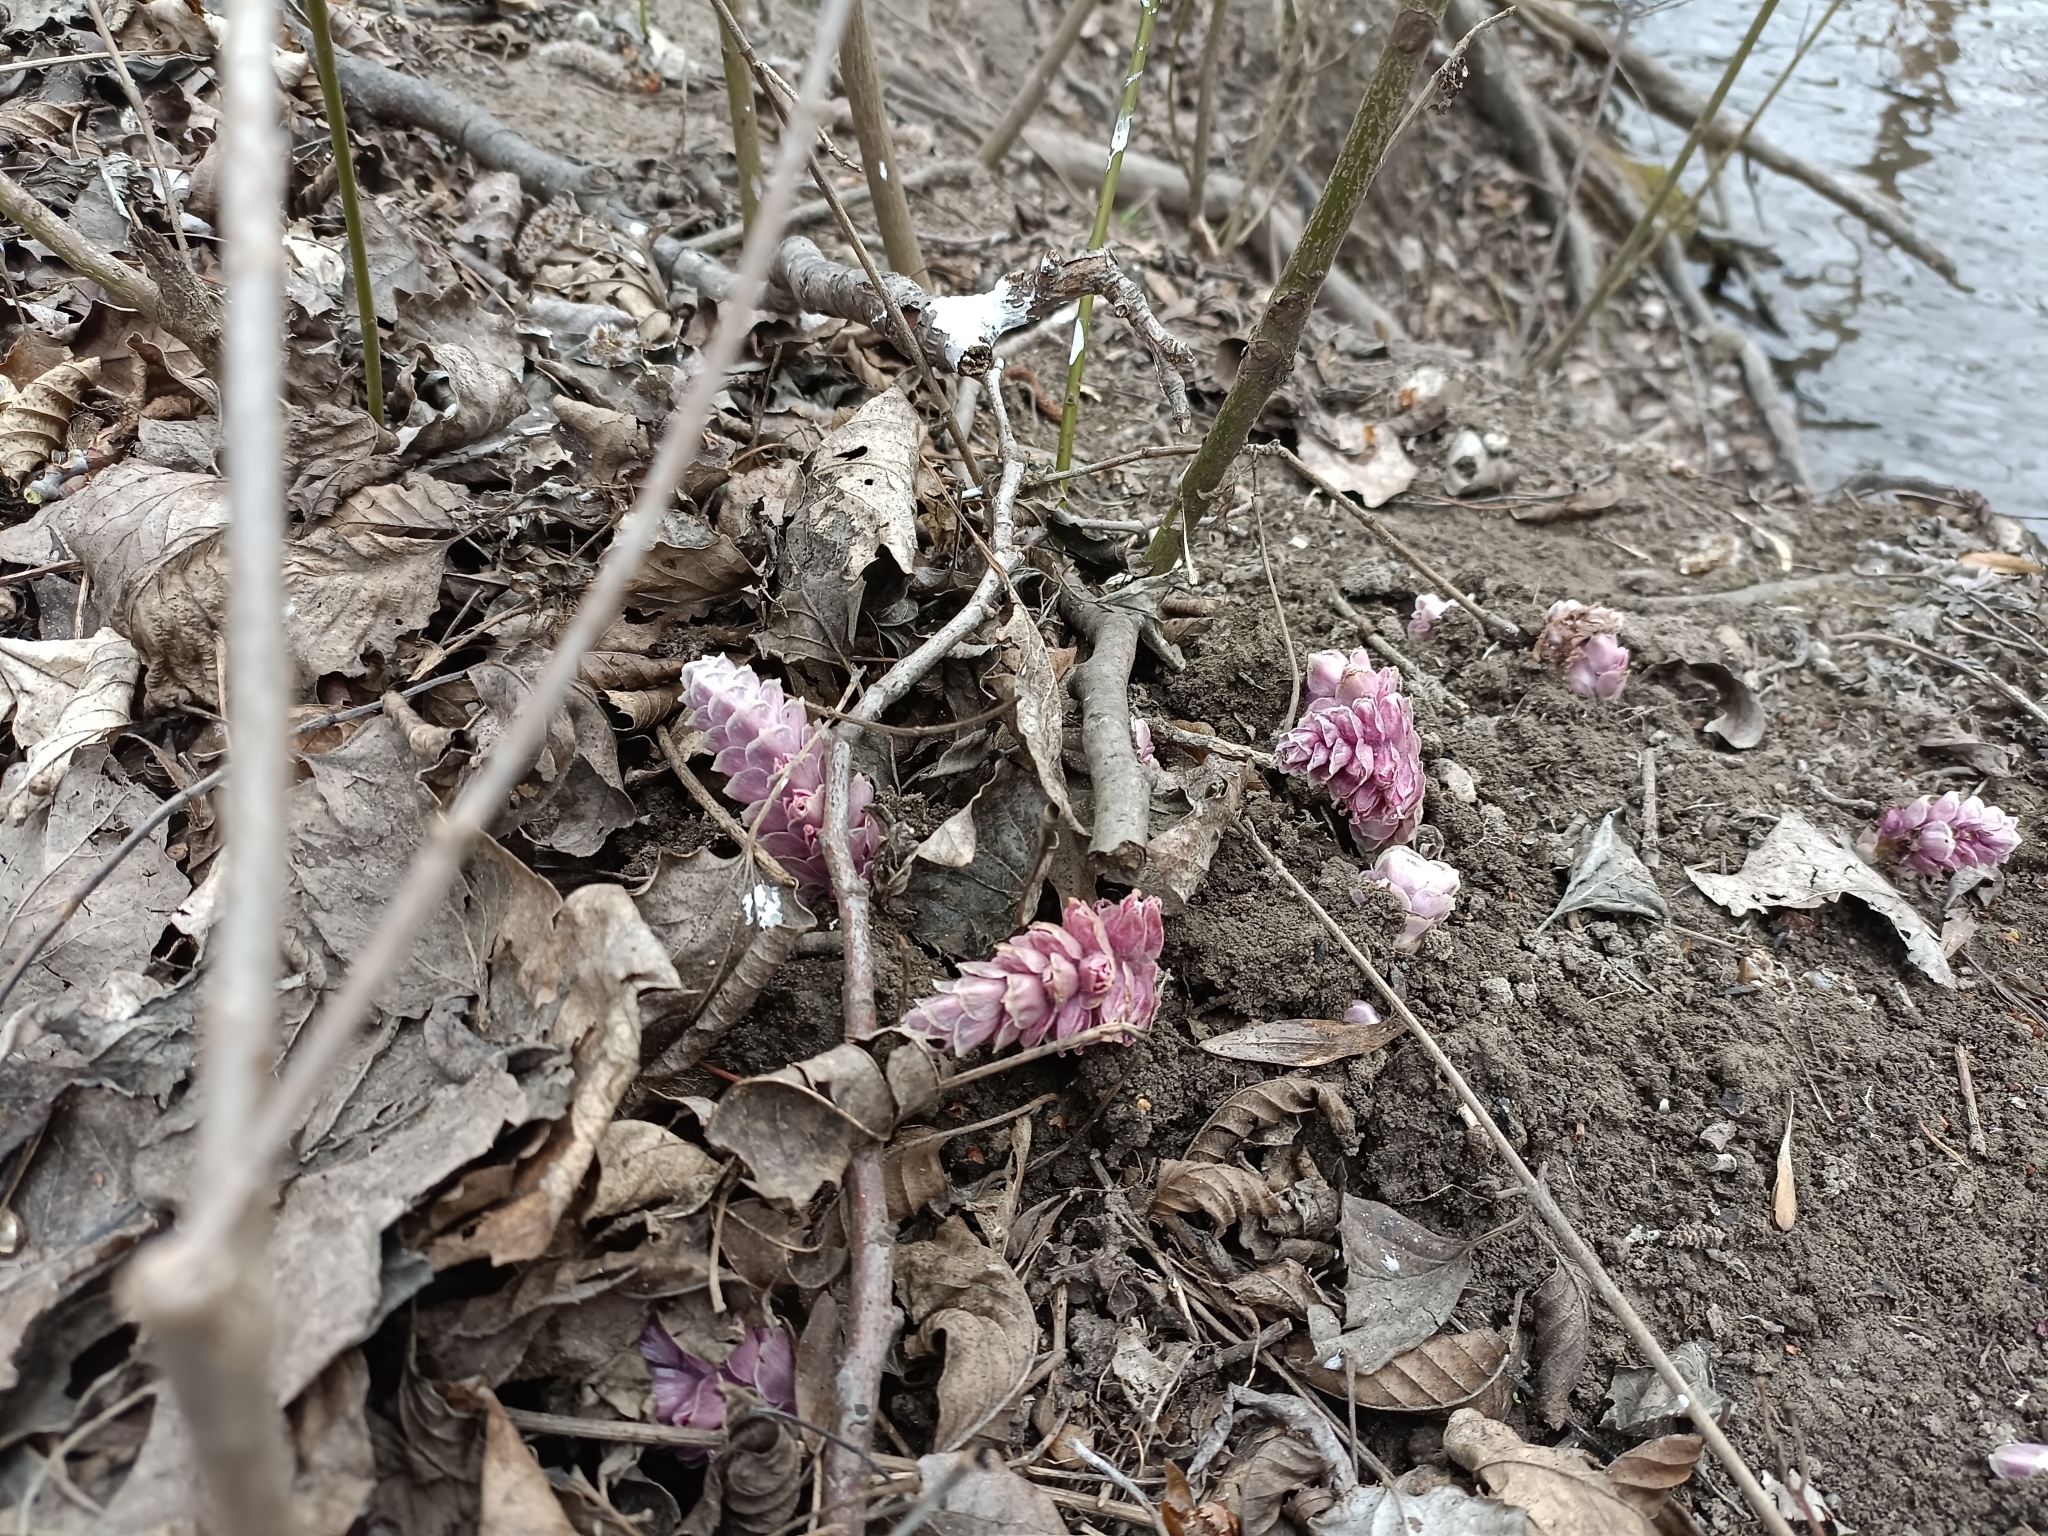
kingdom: Plantae
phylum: Tracheophyta
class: Magnoliopsida
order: Lamiales
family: Orobanchaceae
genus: Lathraea
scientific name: Lathraea squamaria
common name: Toothwort
